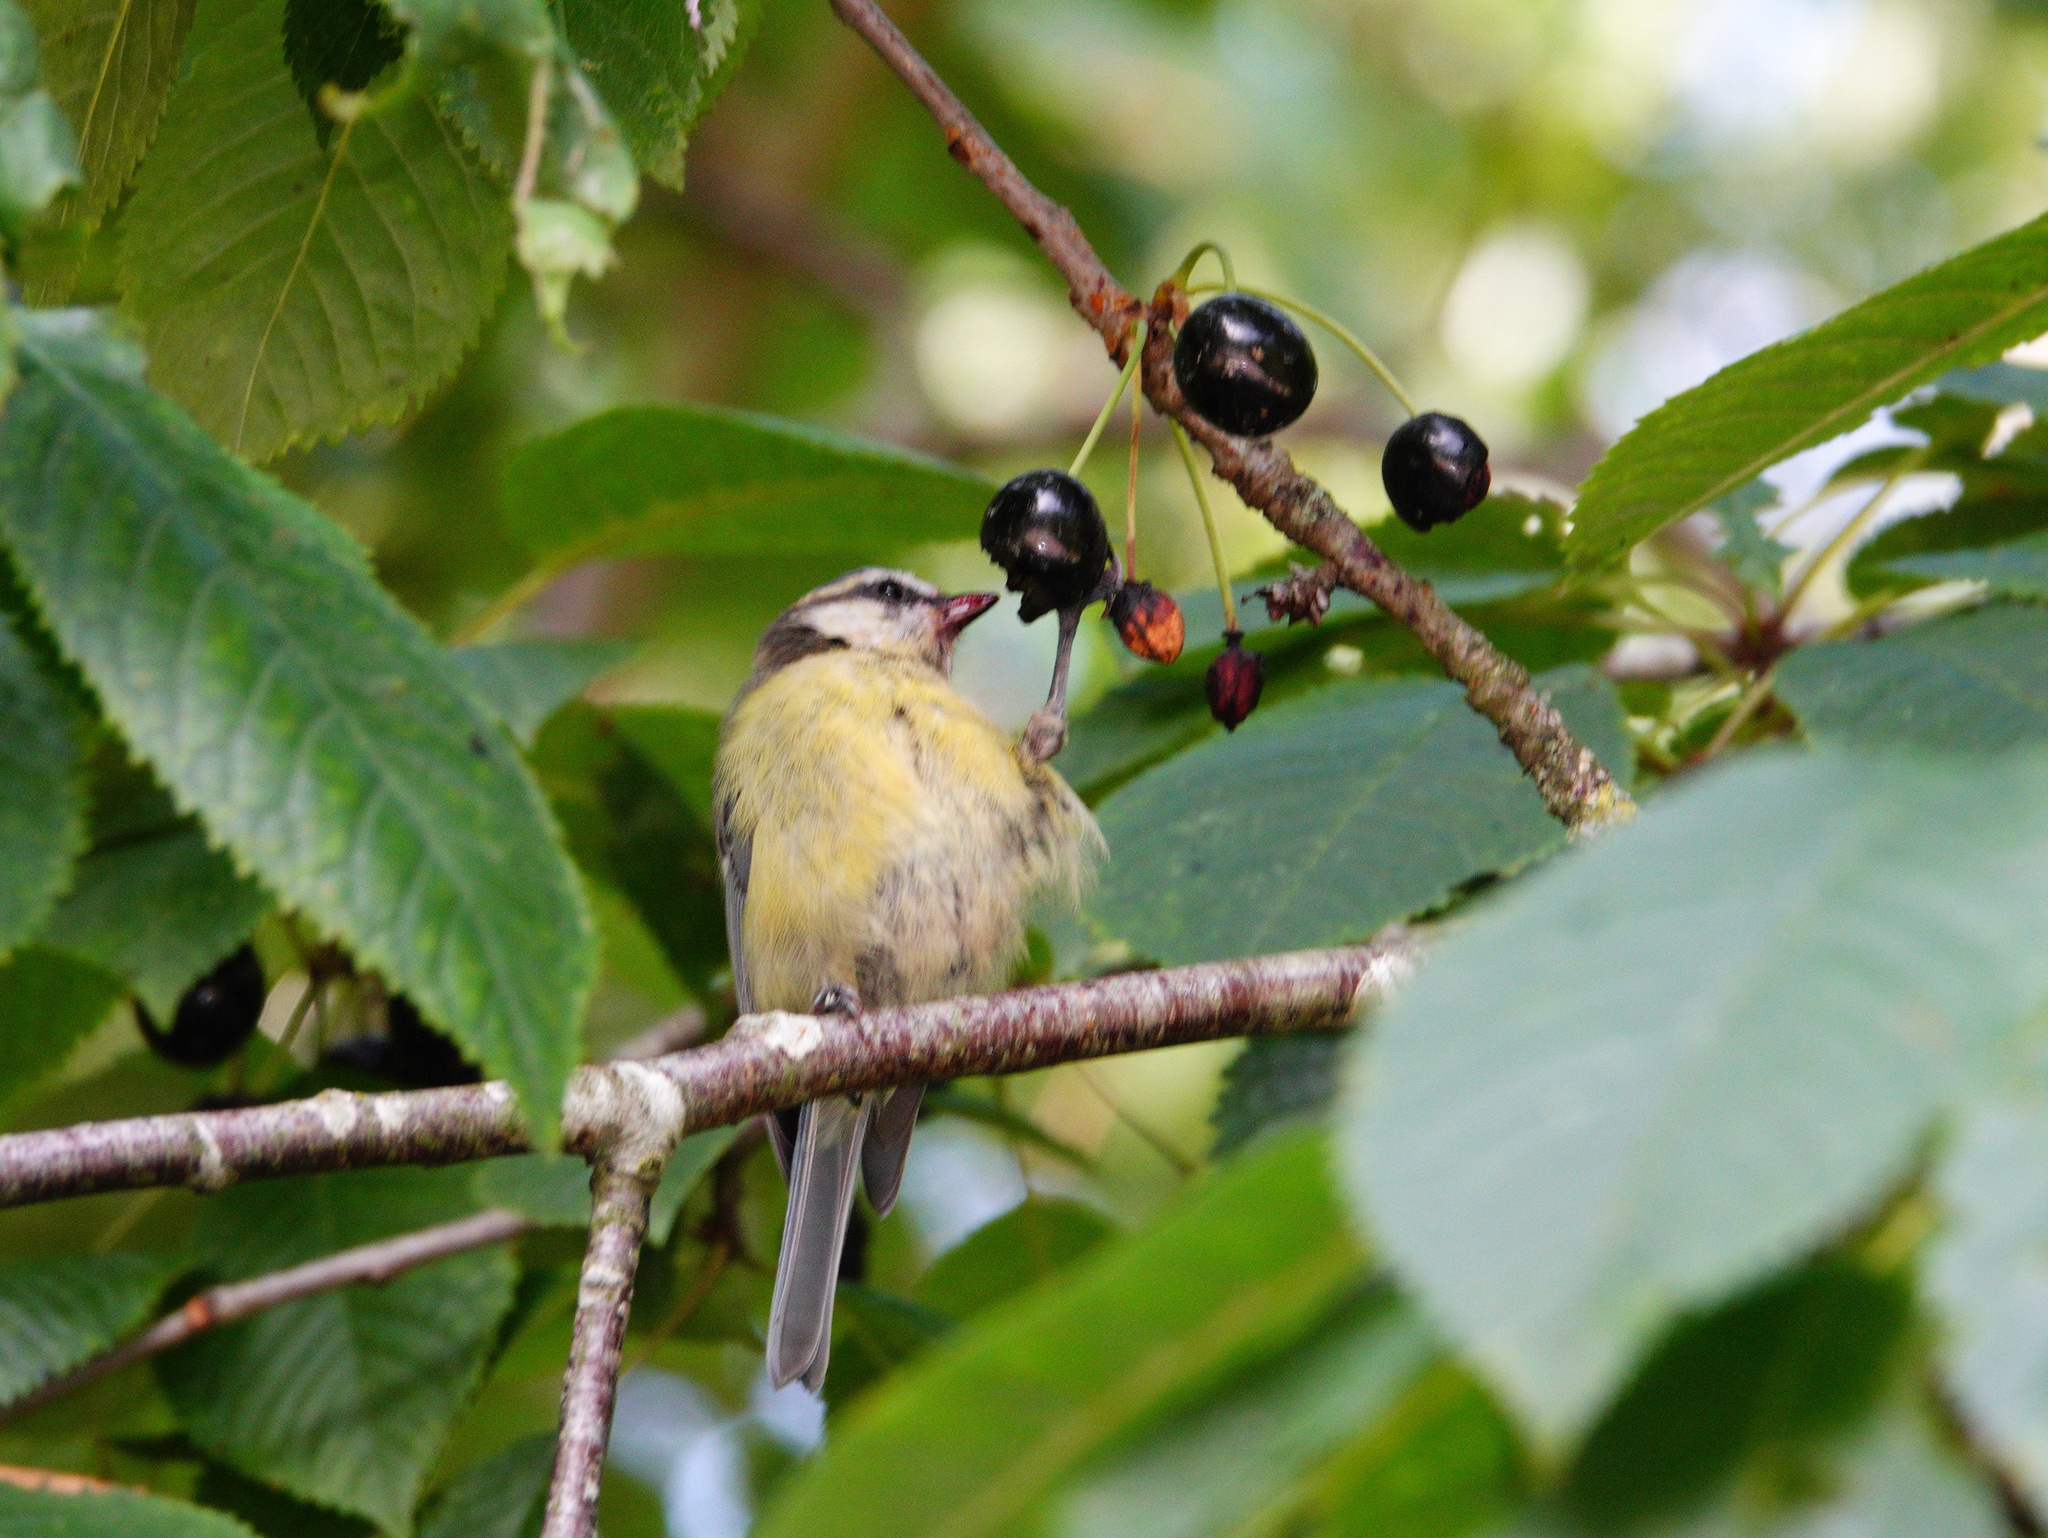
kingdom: Animalia
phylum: Chordata
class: Aves
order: Passeriformes
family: Paridae
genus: Cyanistes
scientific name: Cyanistes caeruleus
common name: Eurasian blue tit
